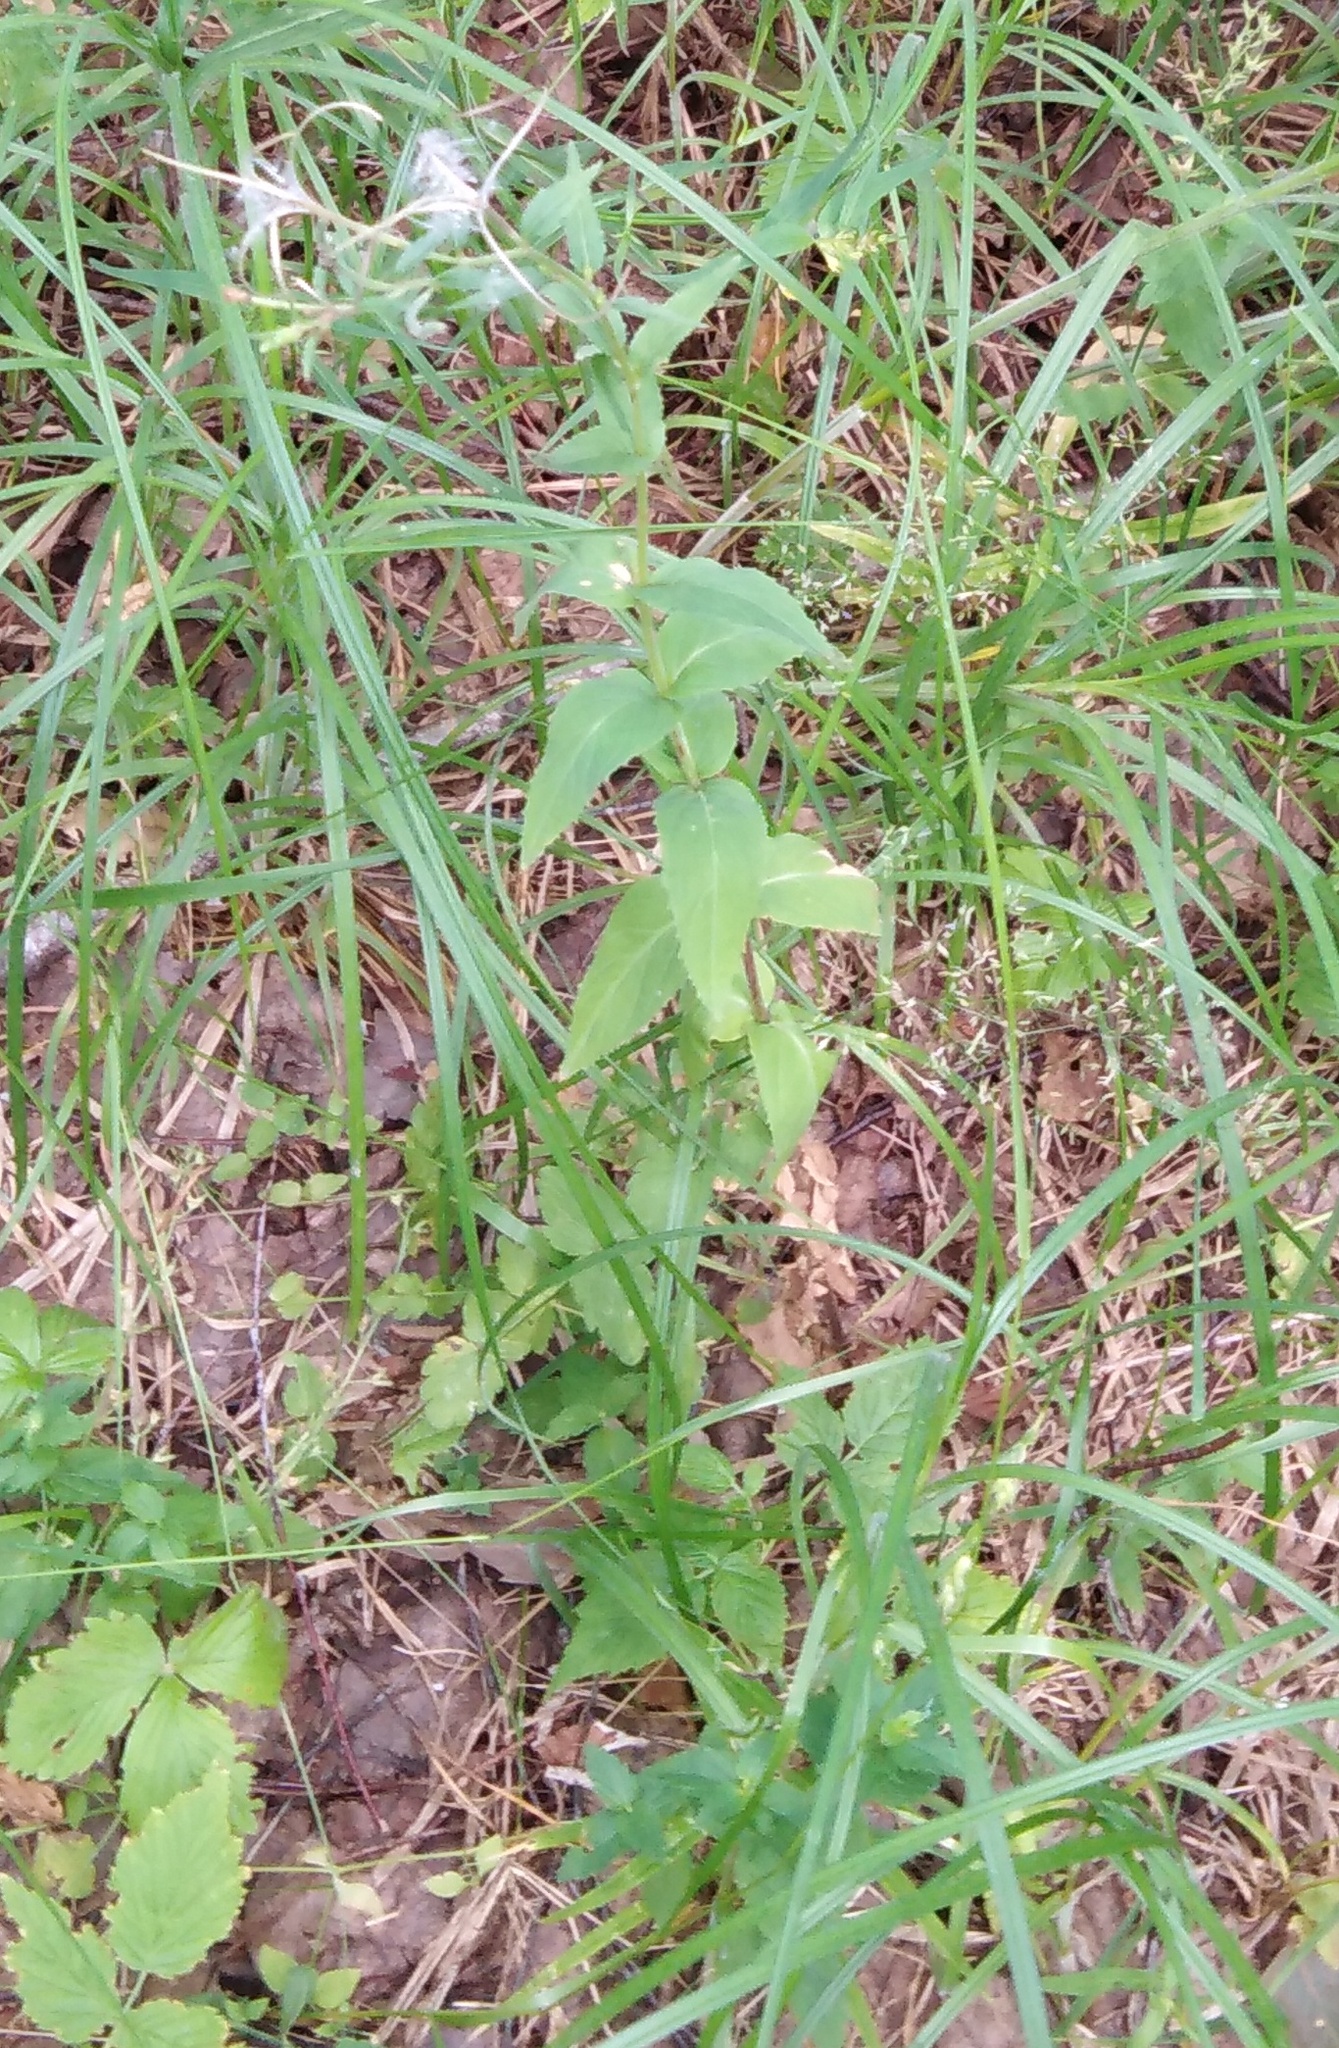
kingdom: Plantae
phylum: Tracheophyta
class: Magnoliopsida
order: Myrtales
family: Onagraceae
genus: Epilobium
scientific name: Epilobium montanum
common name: Broad-leaved willowherb
